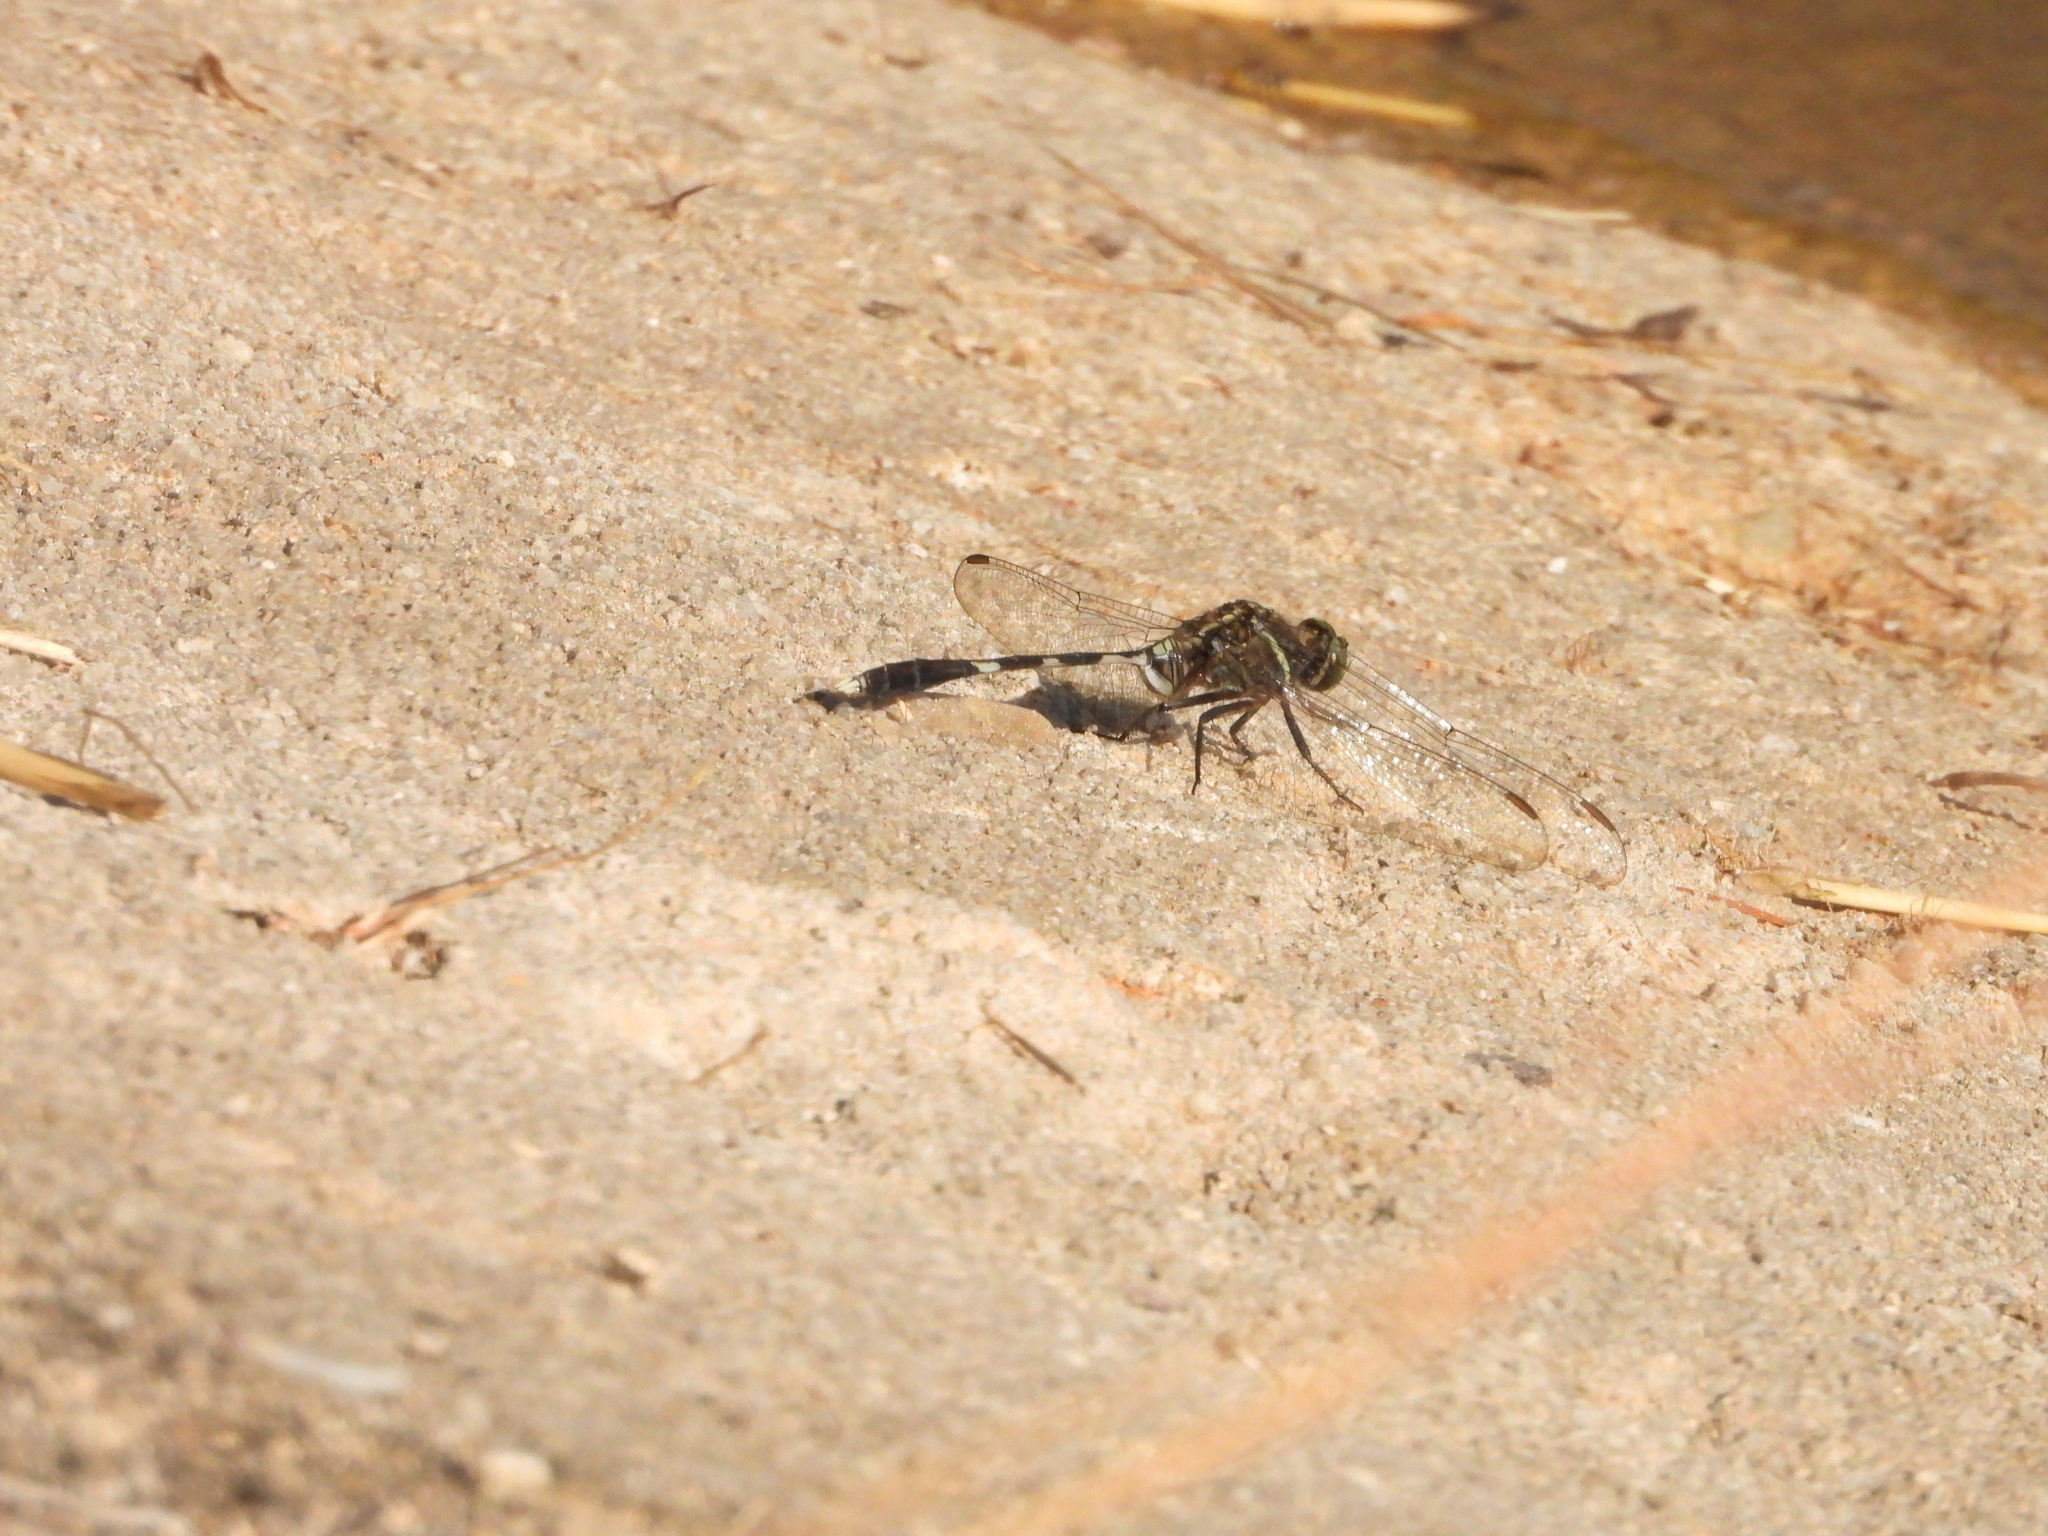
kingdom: Animalia
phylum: Arthropoda
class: Insecta
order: Odonata
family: Libellulidae
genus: Orthetrum
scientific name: Orthetrum sabina
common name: Slender skimmer
